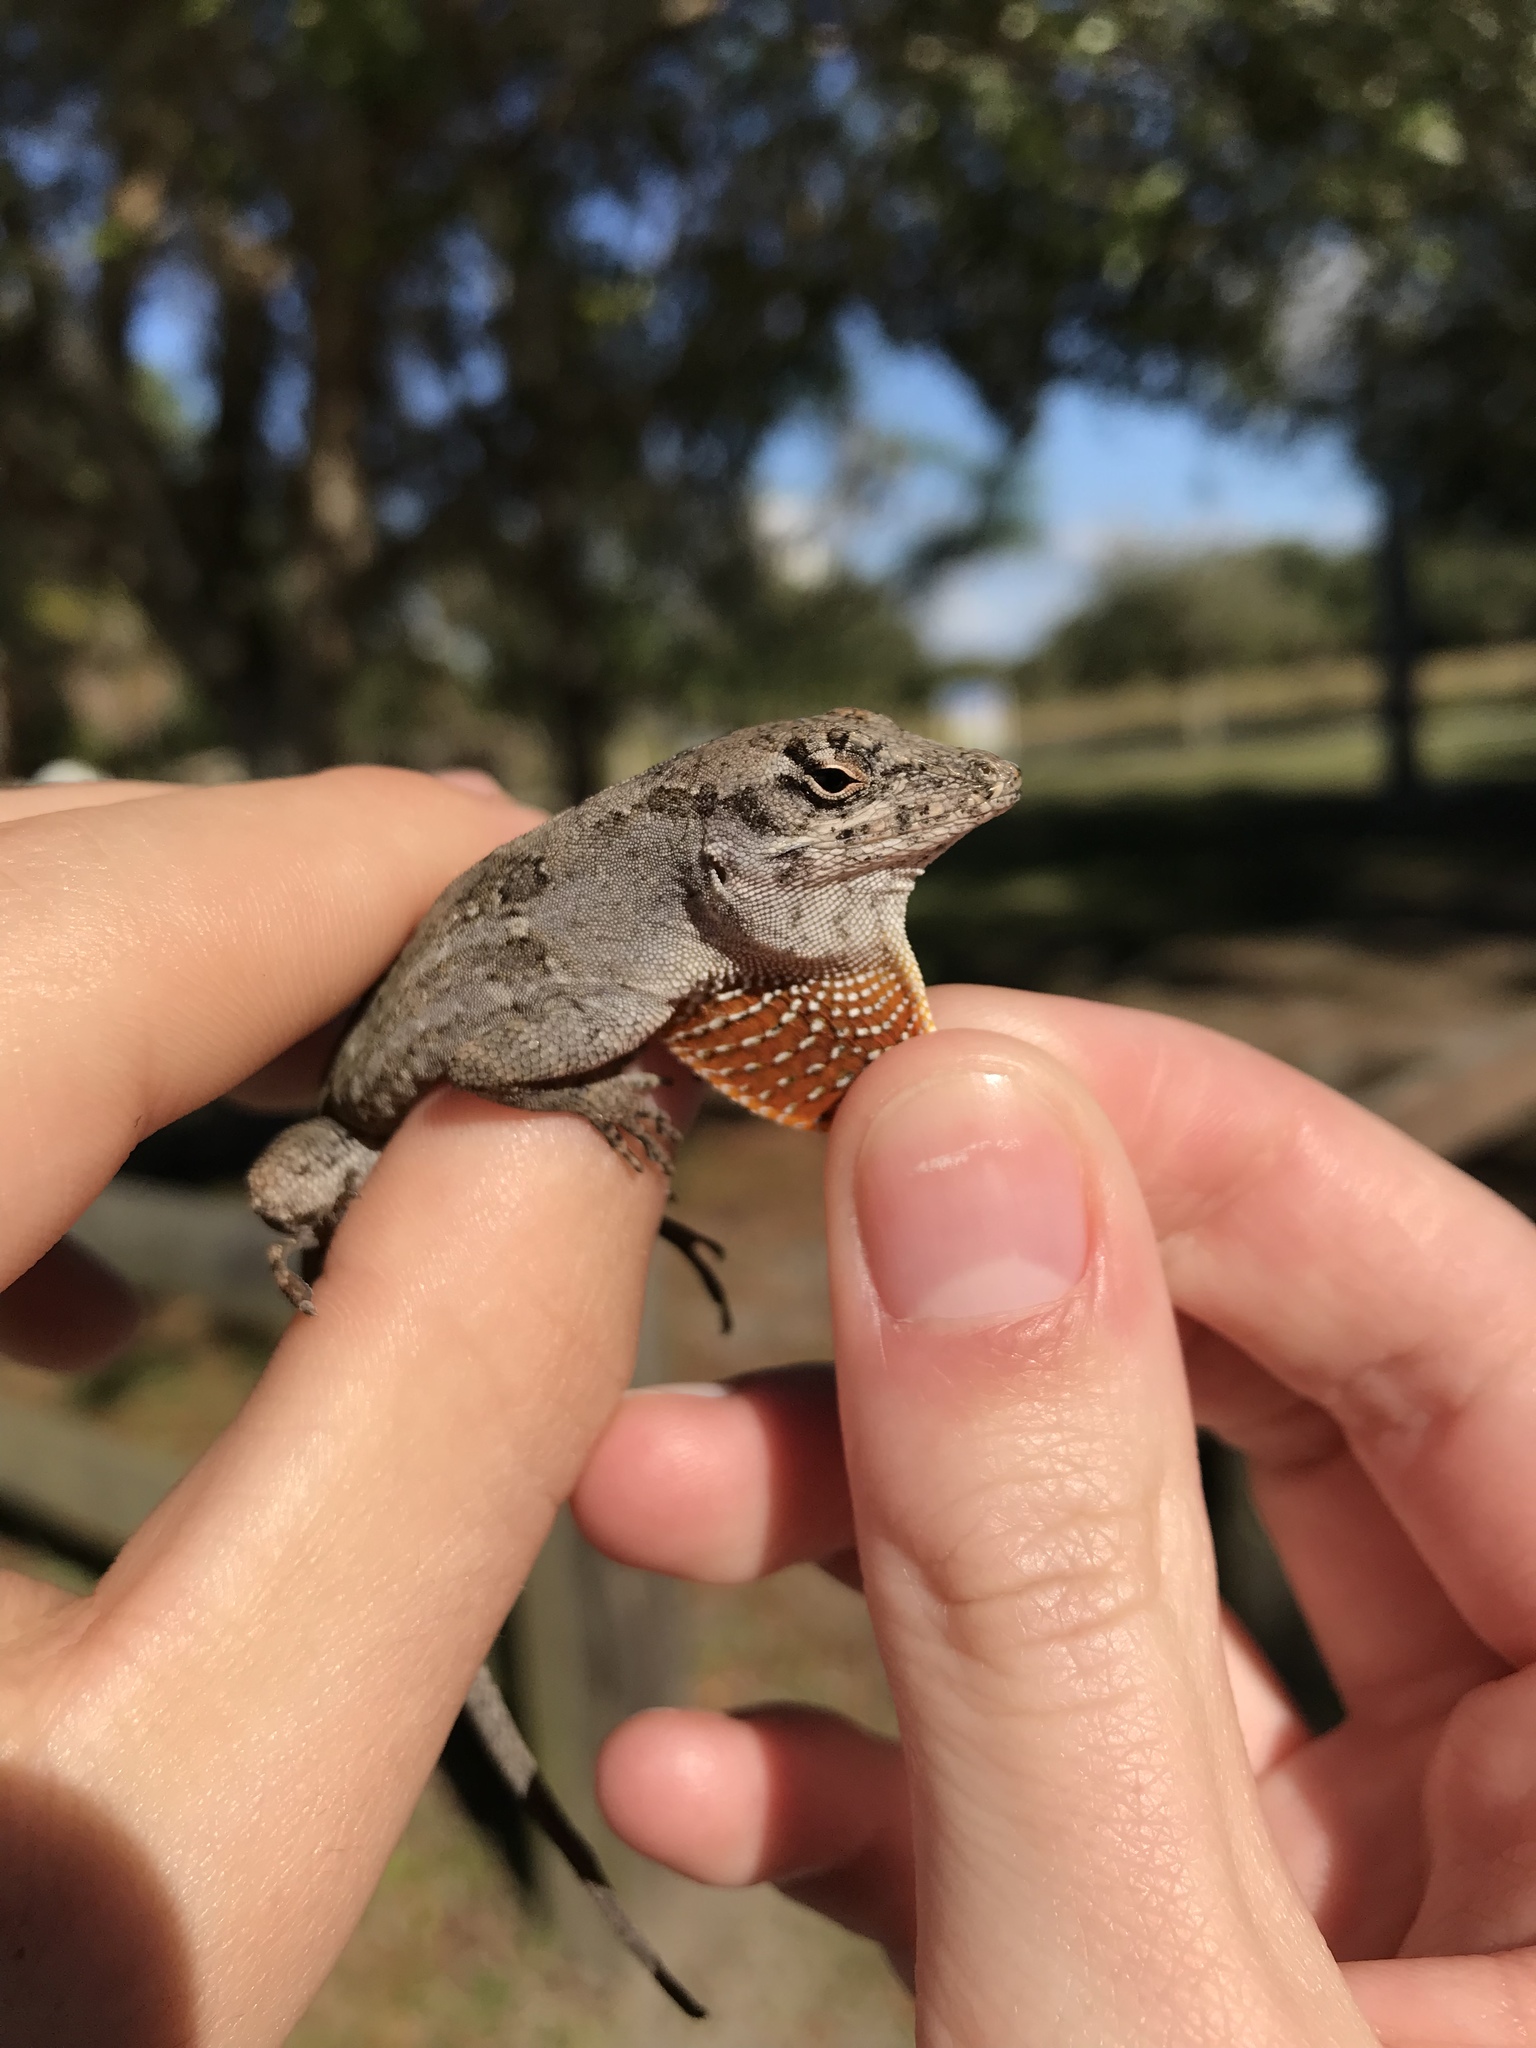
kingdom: Animalia
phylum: Chordata
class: Squamata
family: Dactyloidae
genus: Anolis
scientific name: Anolis sagrei
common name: Brown anole
